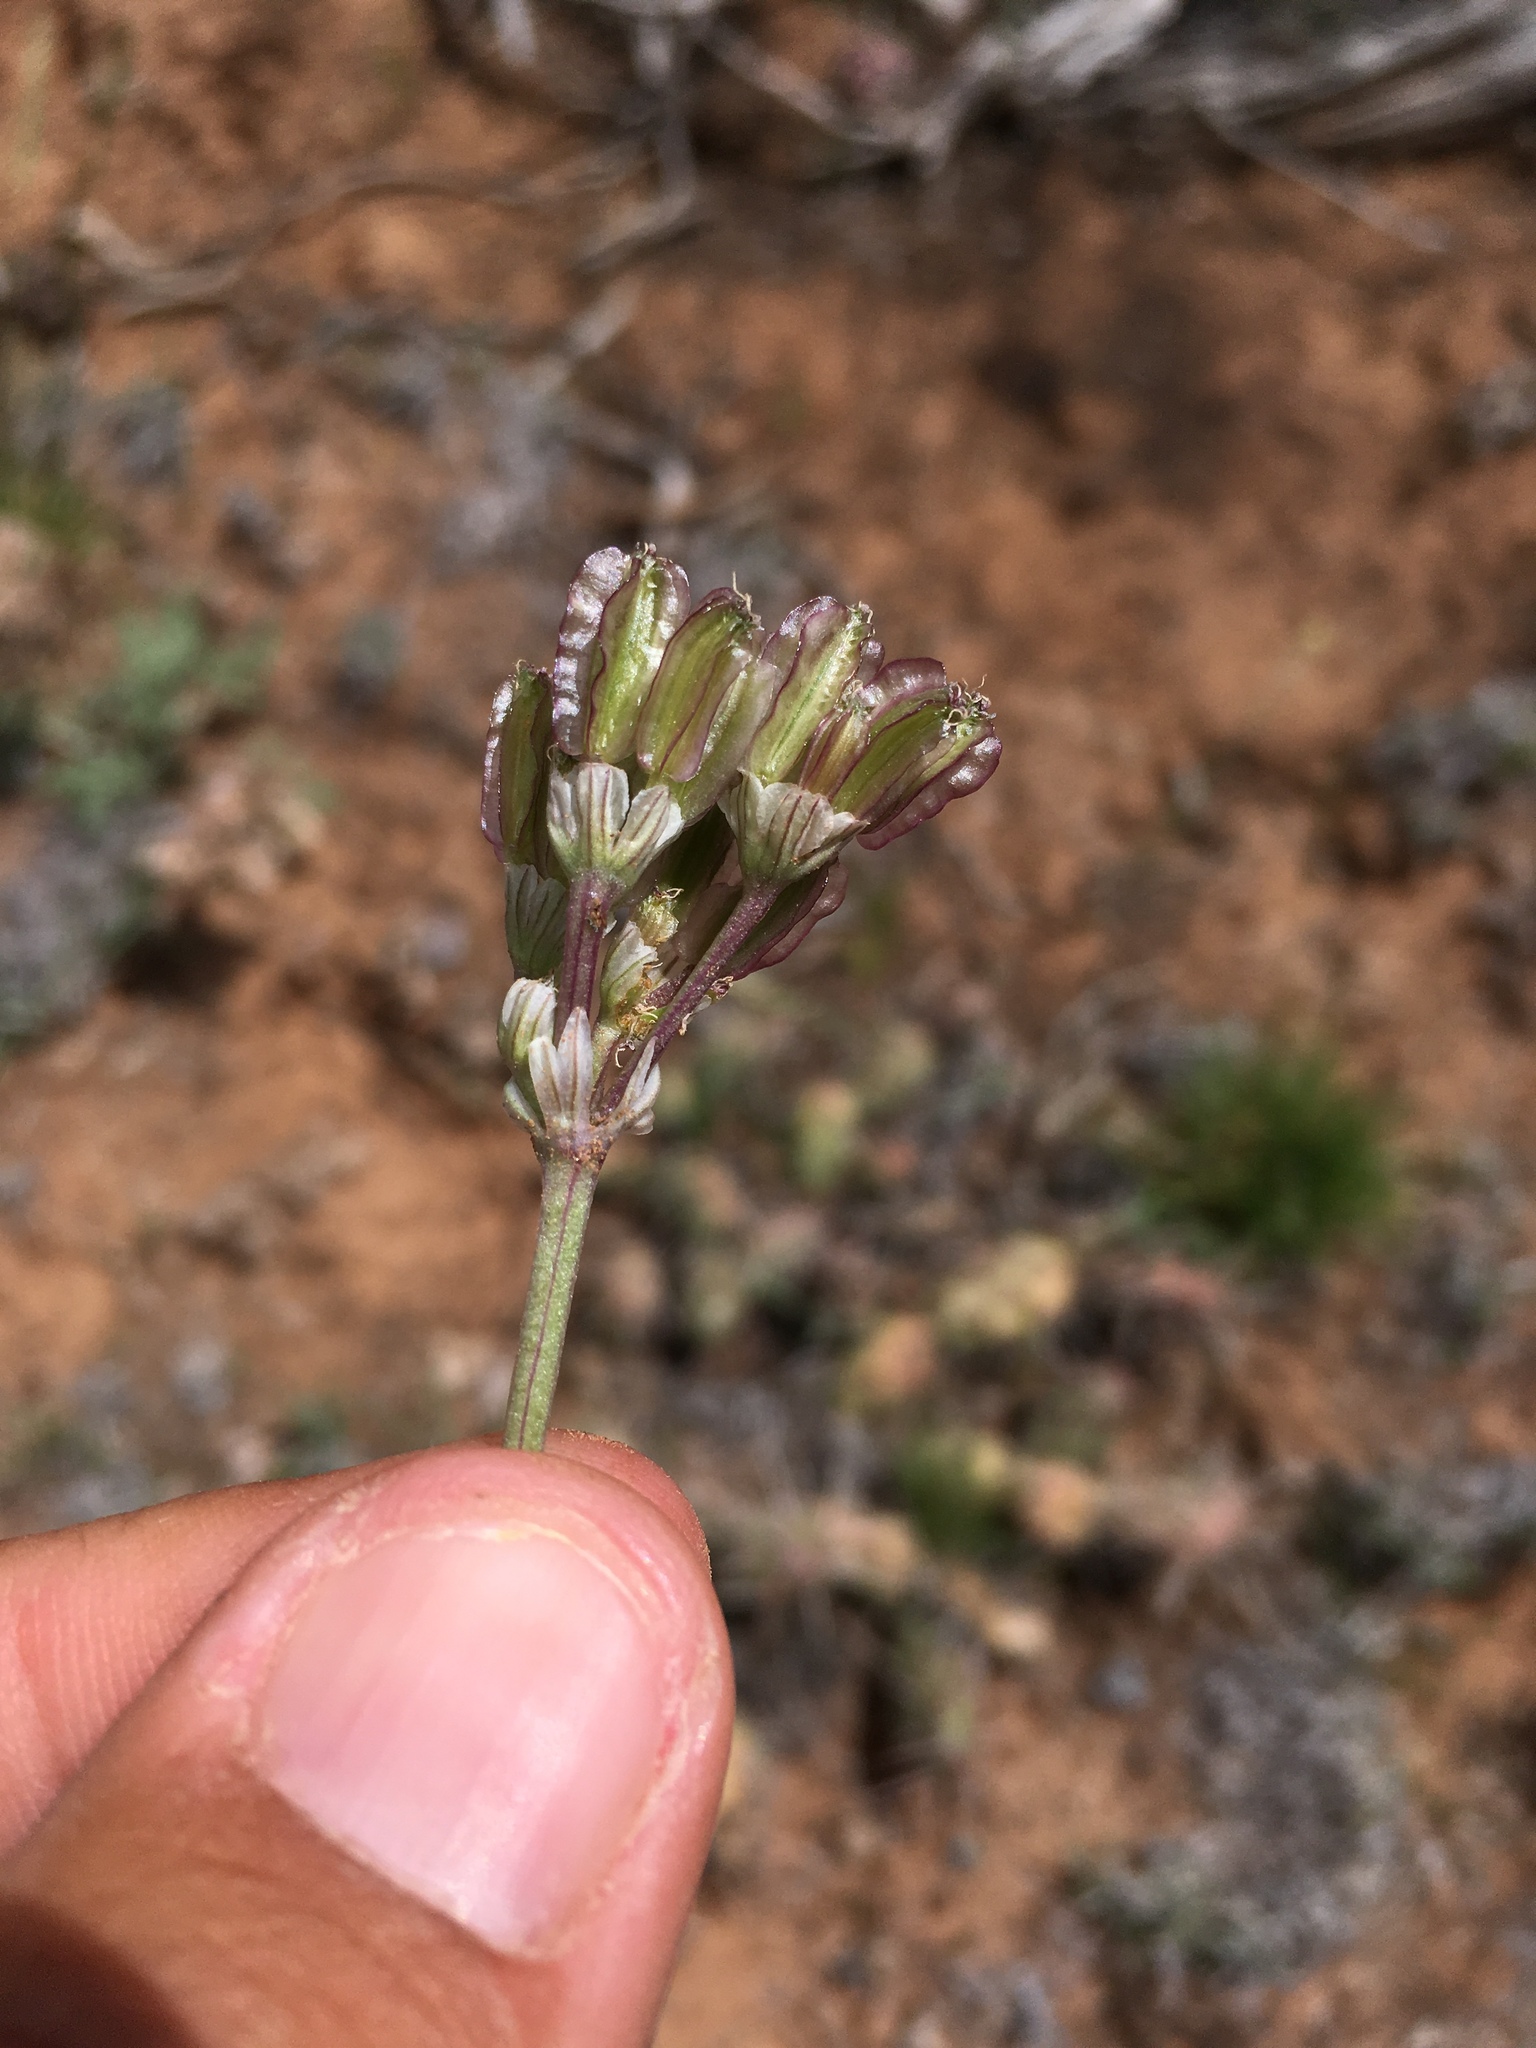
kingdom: Plantae
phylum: Tracheophyta
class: Magnoliopsida
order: Apiales
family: Apiaceae
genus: Vesper
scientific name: Vesper constancei
